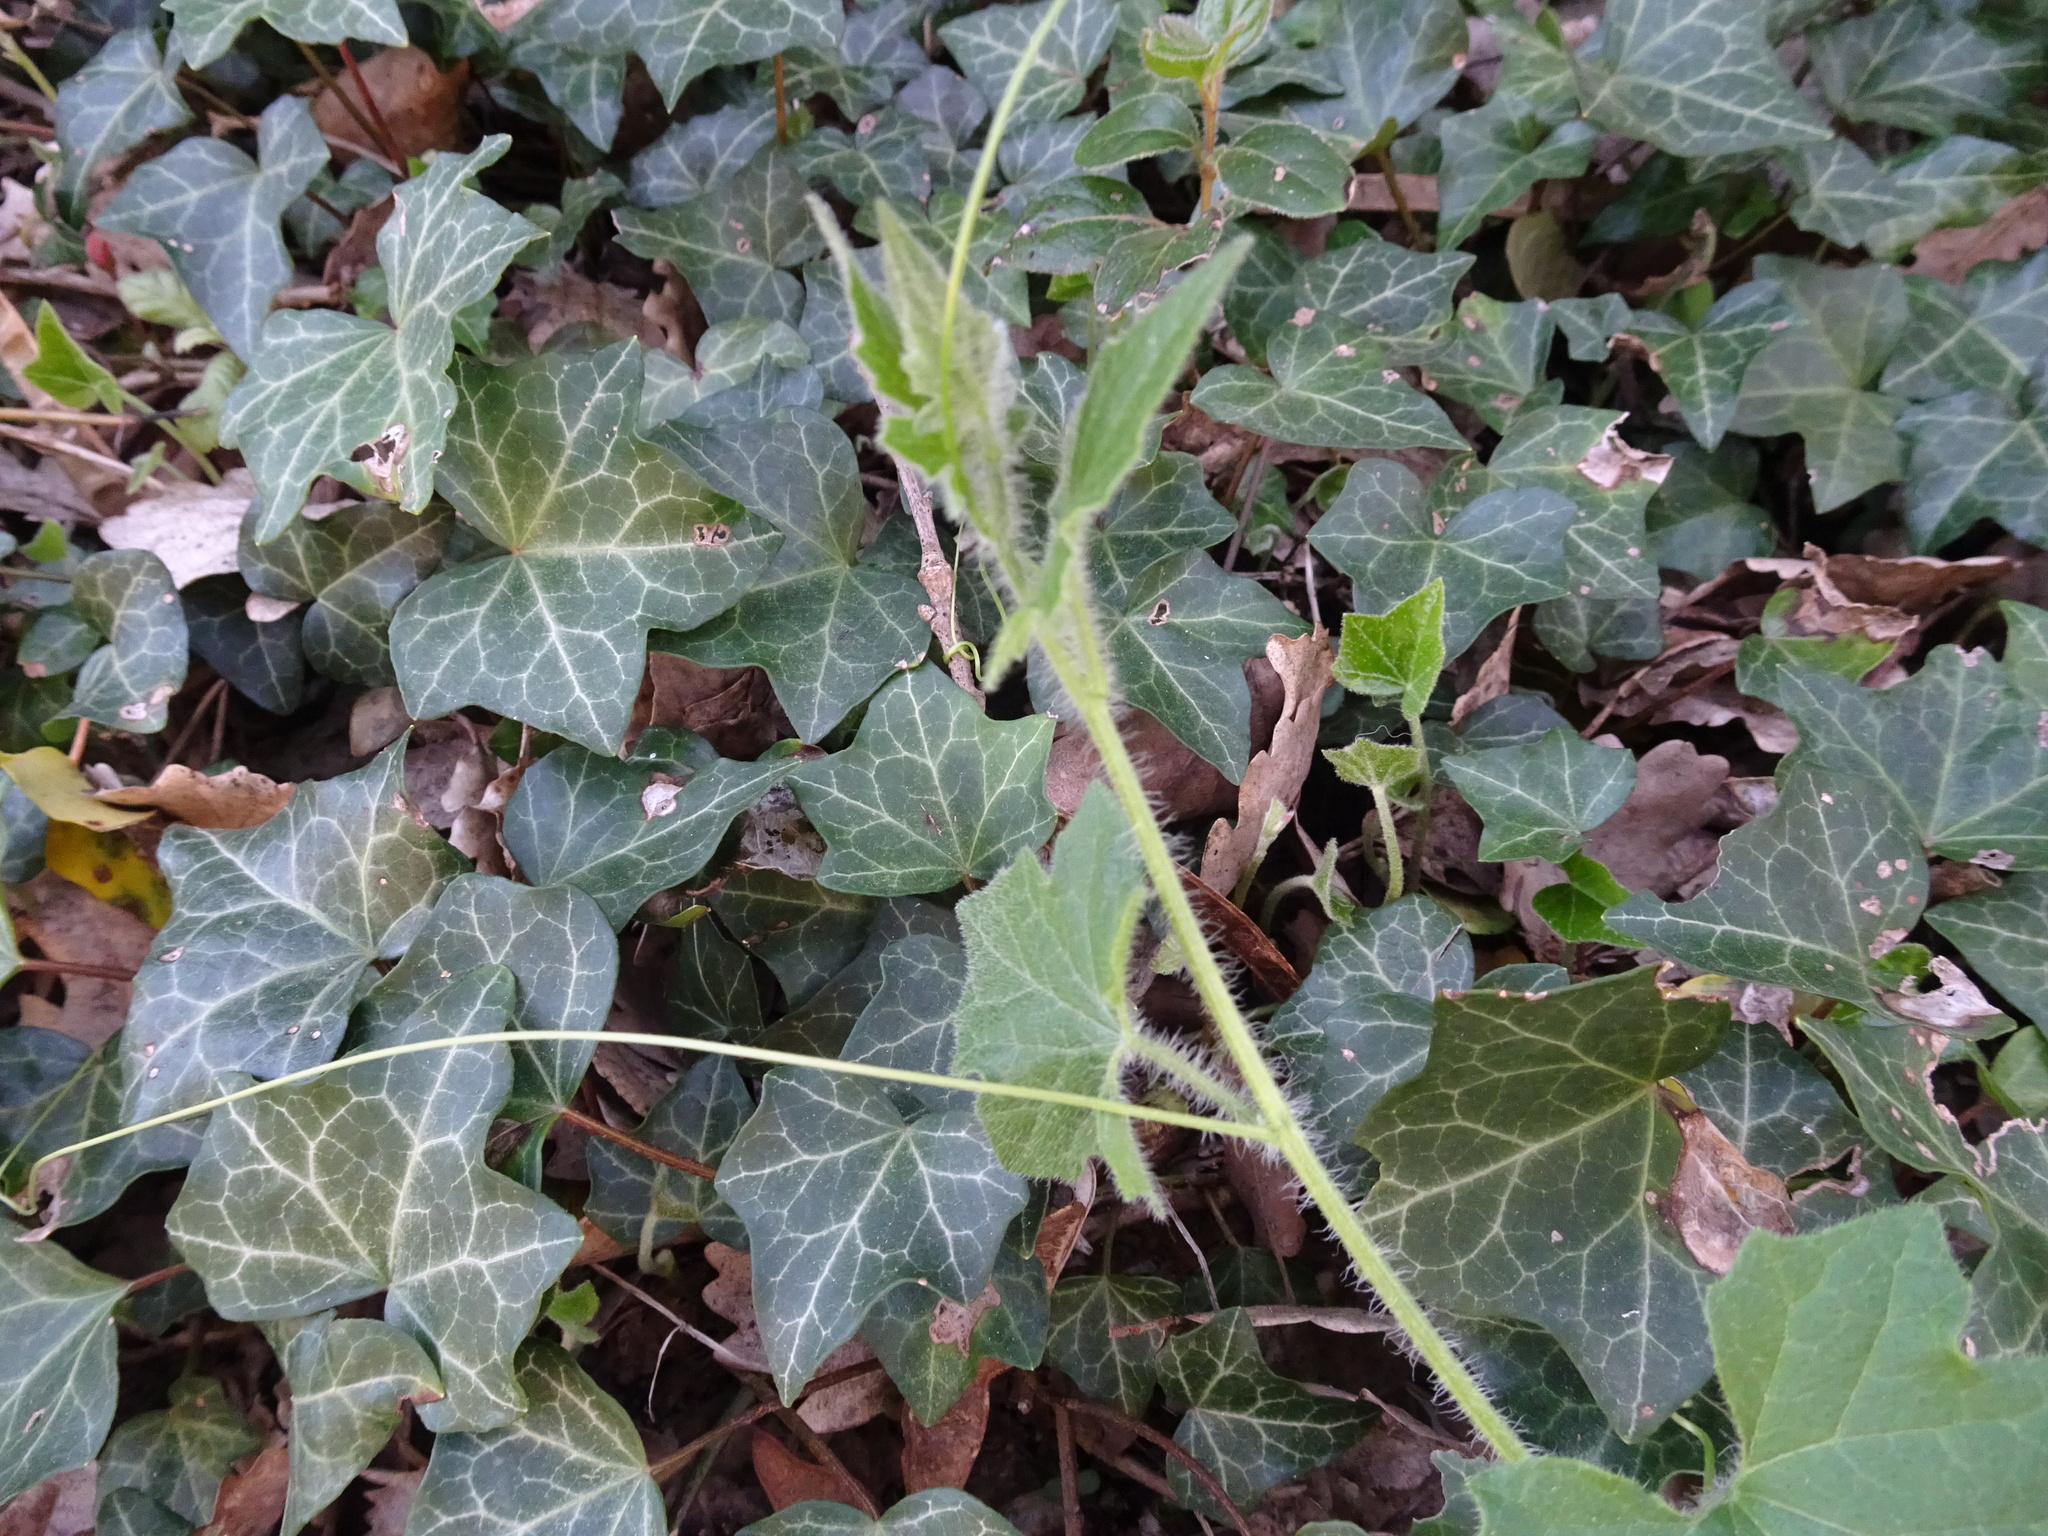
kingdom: Plantae
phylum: Tracheophyta
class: Magnoliopsida
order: Cucurbitales
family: Cucurbitaceae
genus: Bryonia
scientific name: Bryonia cretica
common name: Cretan bryony
